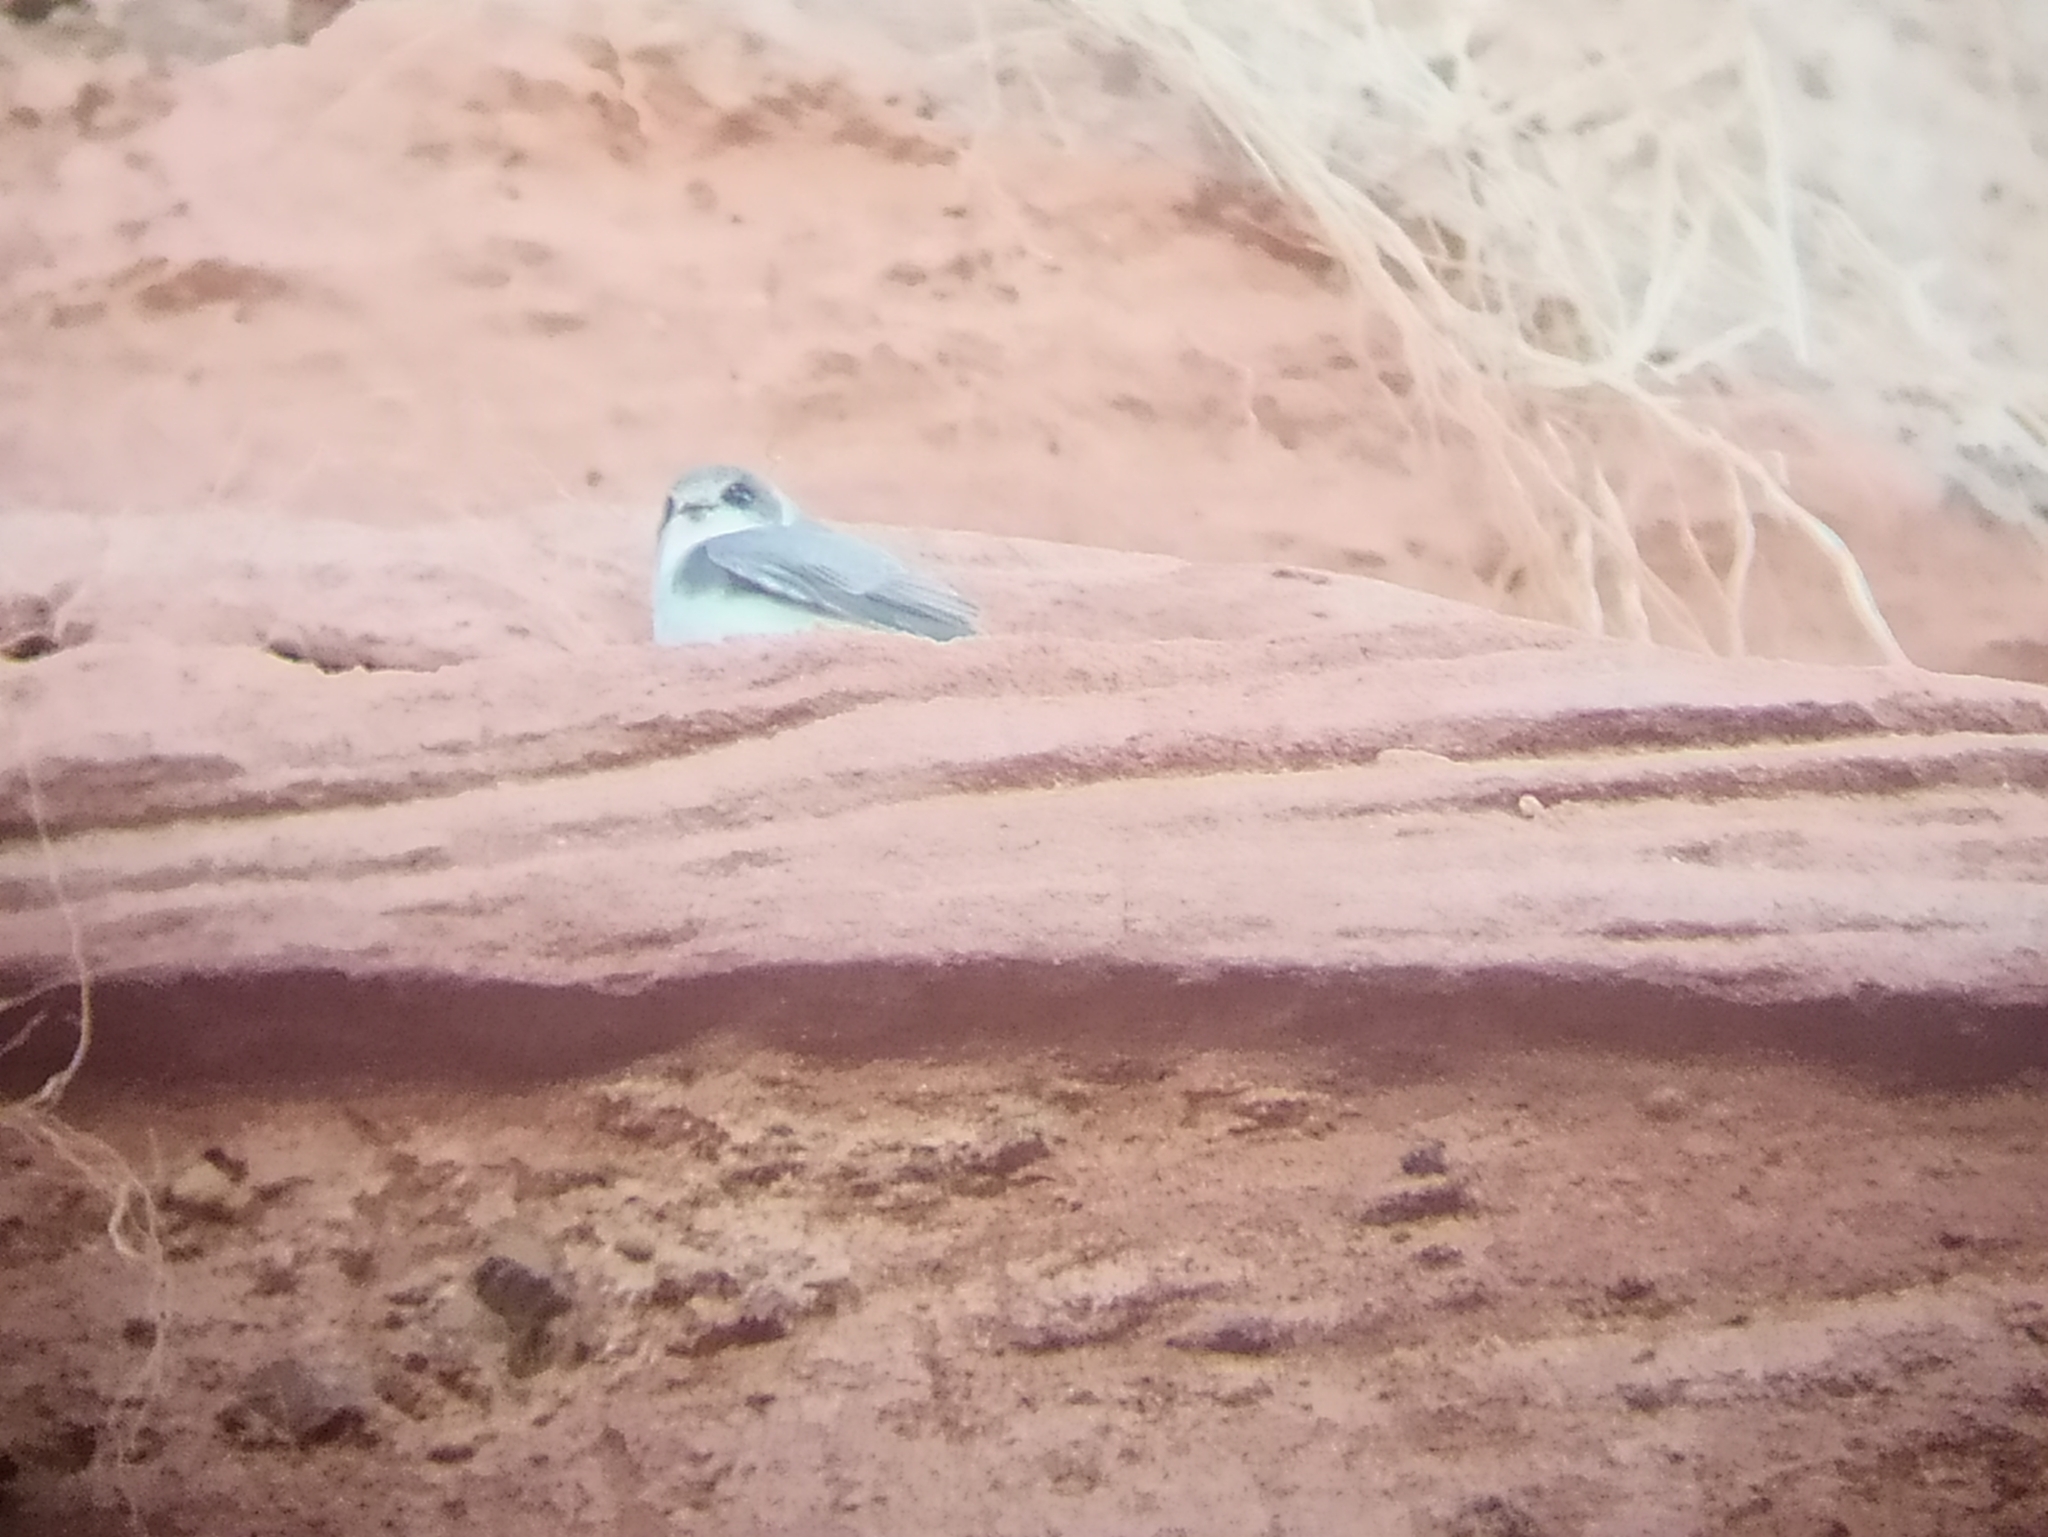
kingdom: Animalia
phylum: Chordata
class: Aves
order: Passeriformes
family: Hirundinidae
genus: Riparia
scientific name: Riparia riparia
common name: Sand martin
